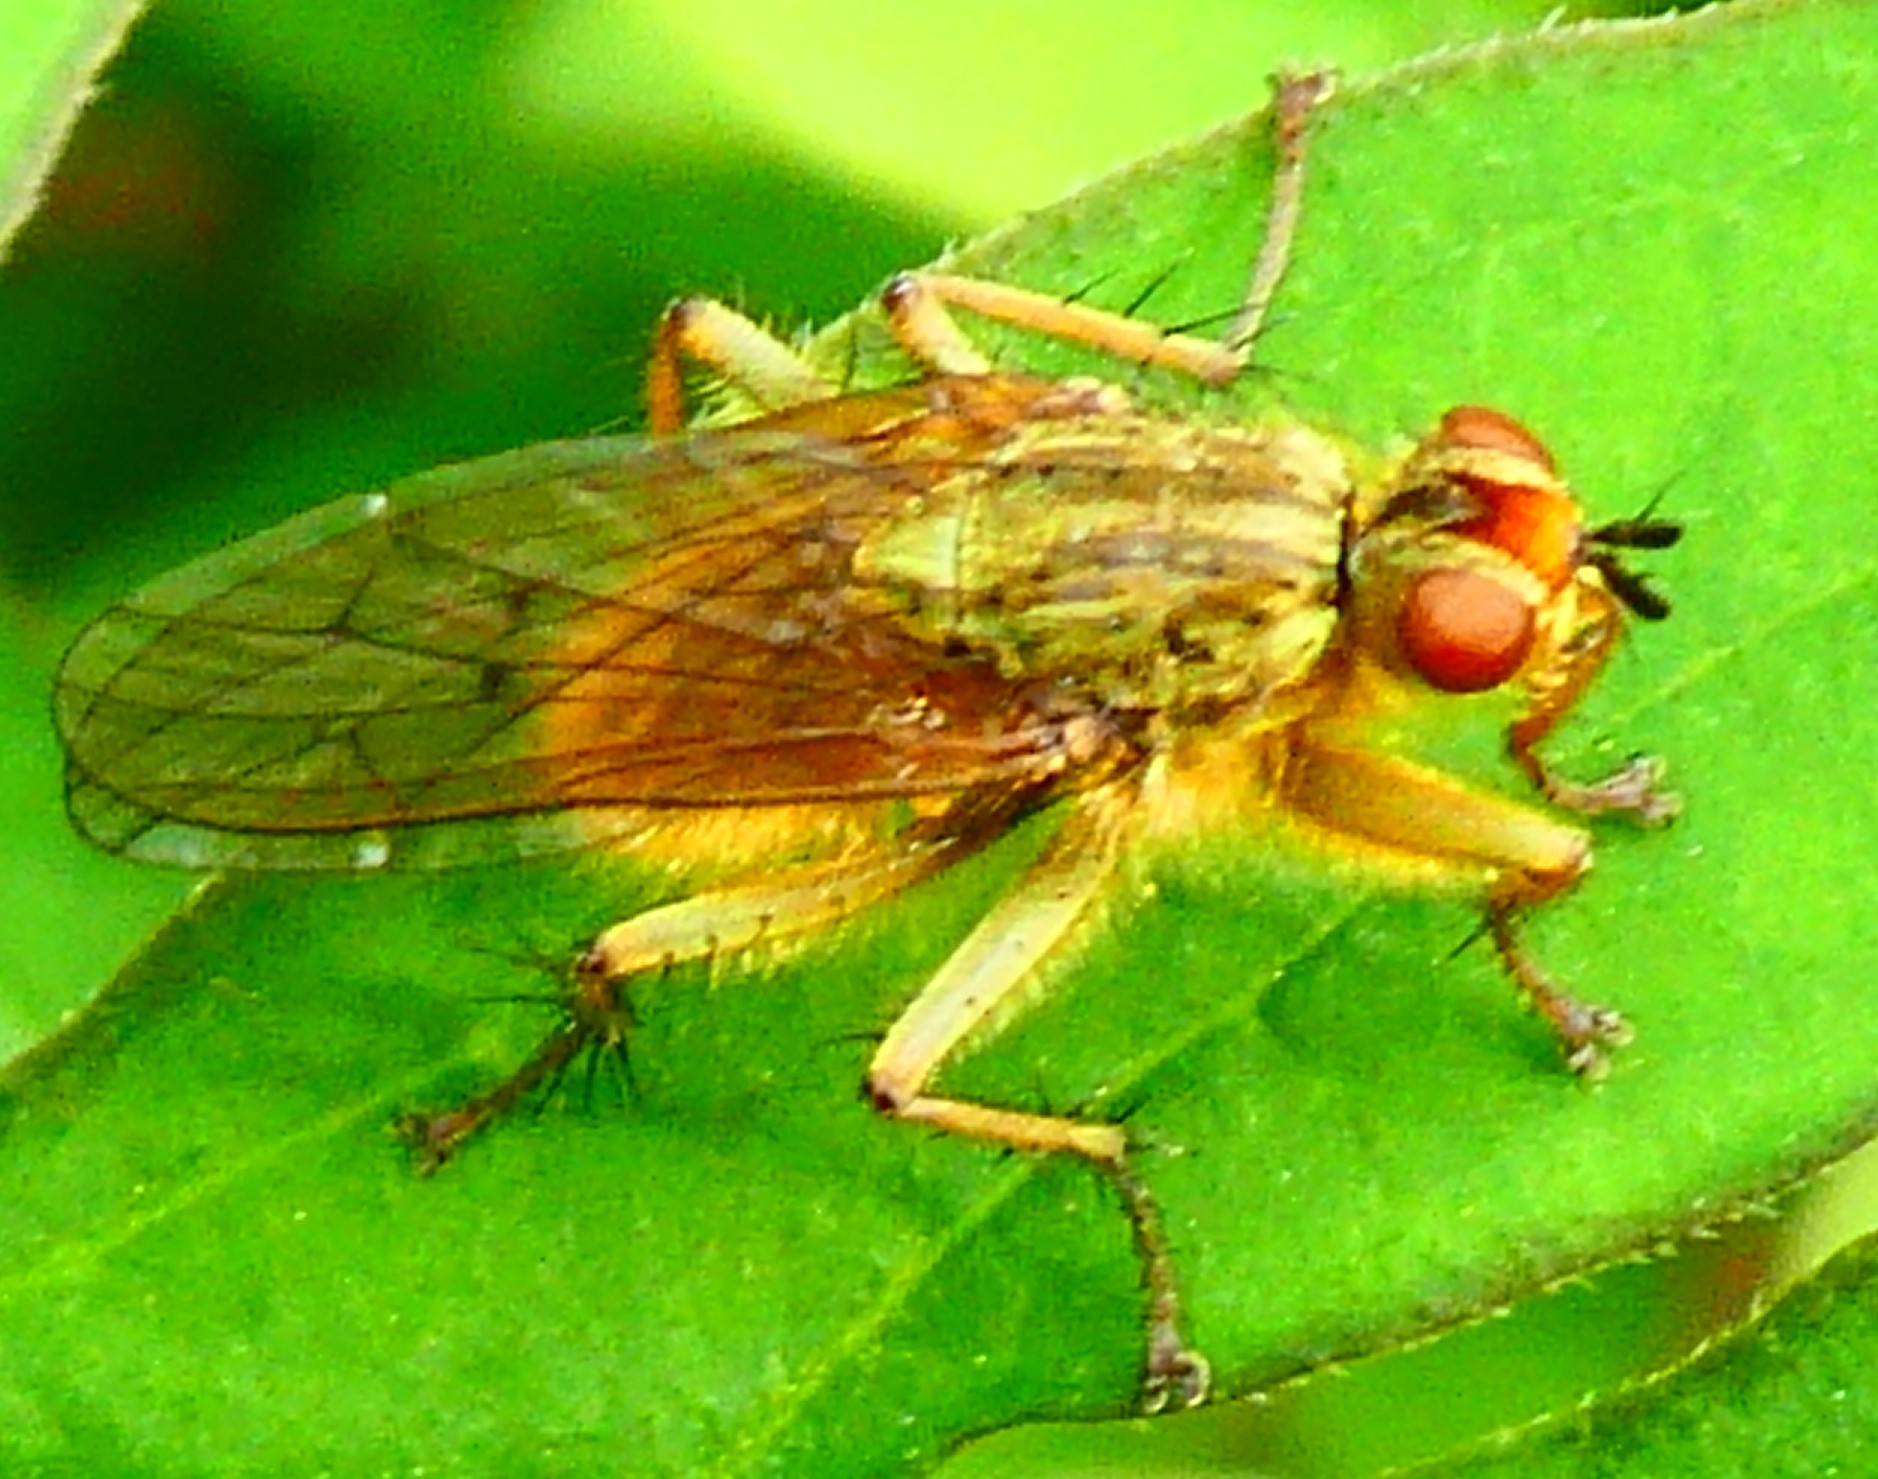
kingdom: Animalia
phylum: Arthropoda
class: Insecta
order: Diptera
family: Scathophagidae
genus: Scathophaga
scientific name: Scathophaga stercoraria
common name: Yellow dung fly
